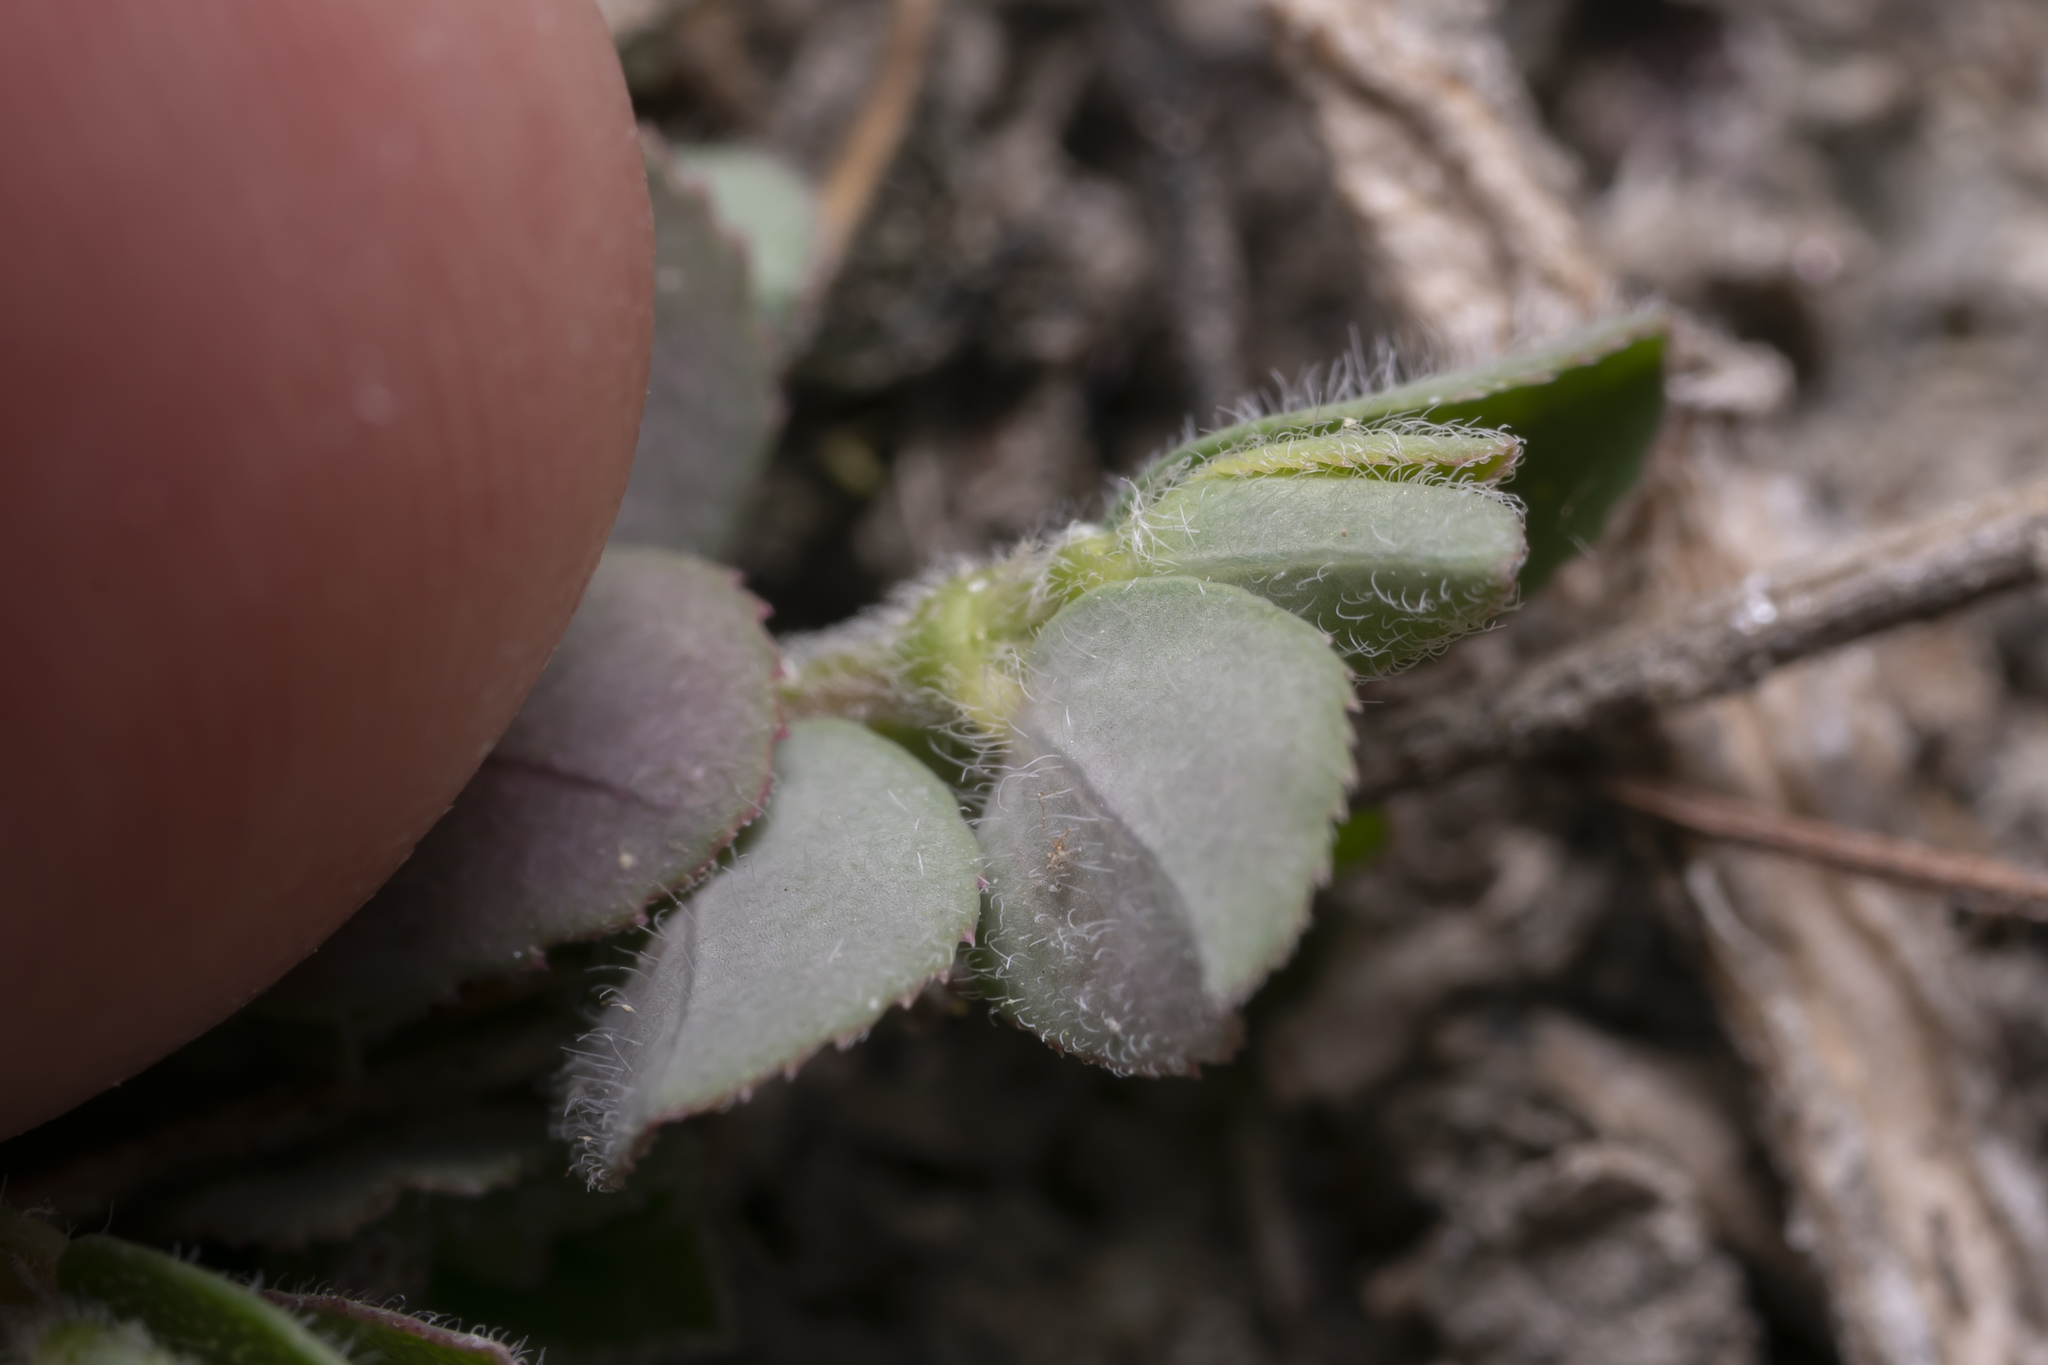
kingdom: Plantae
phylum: Tracheophyta
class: Magnoliopsida
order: Malpighiales
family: Euphorbiaceae
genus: Euphorbia
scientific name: Euphorbia prostrata
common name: Prostrate sandmat
